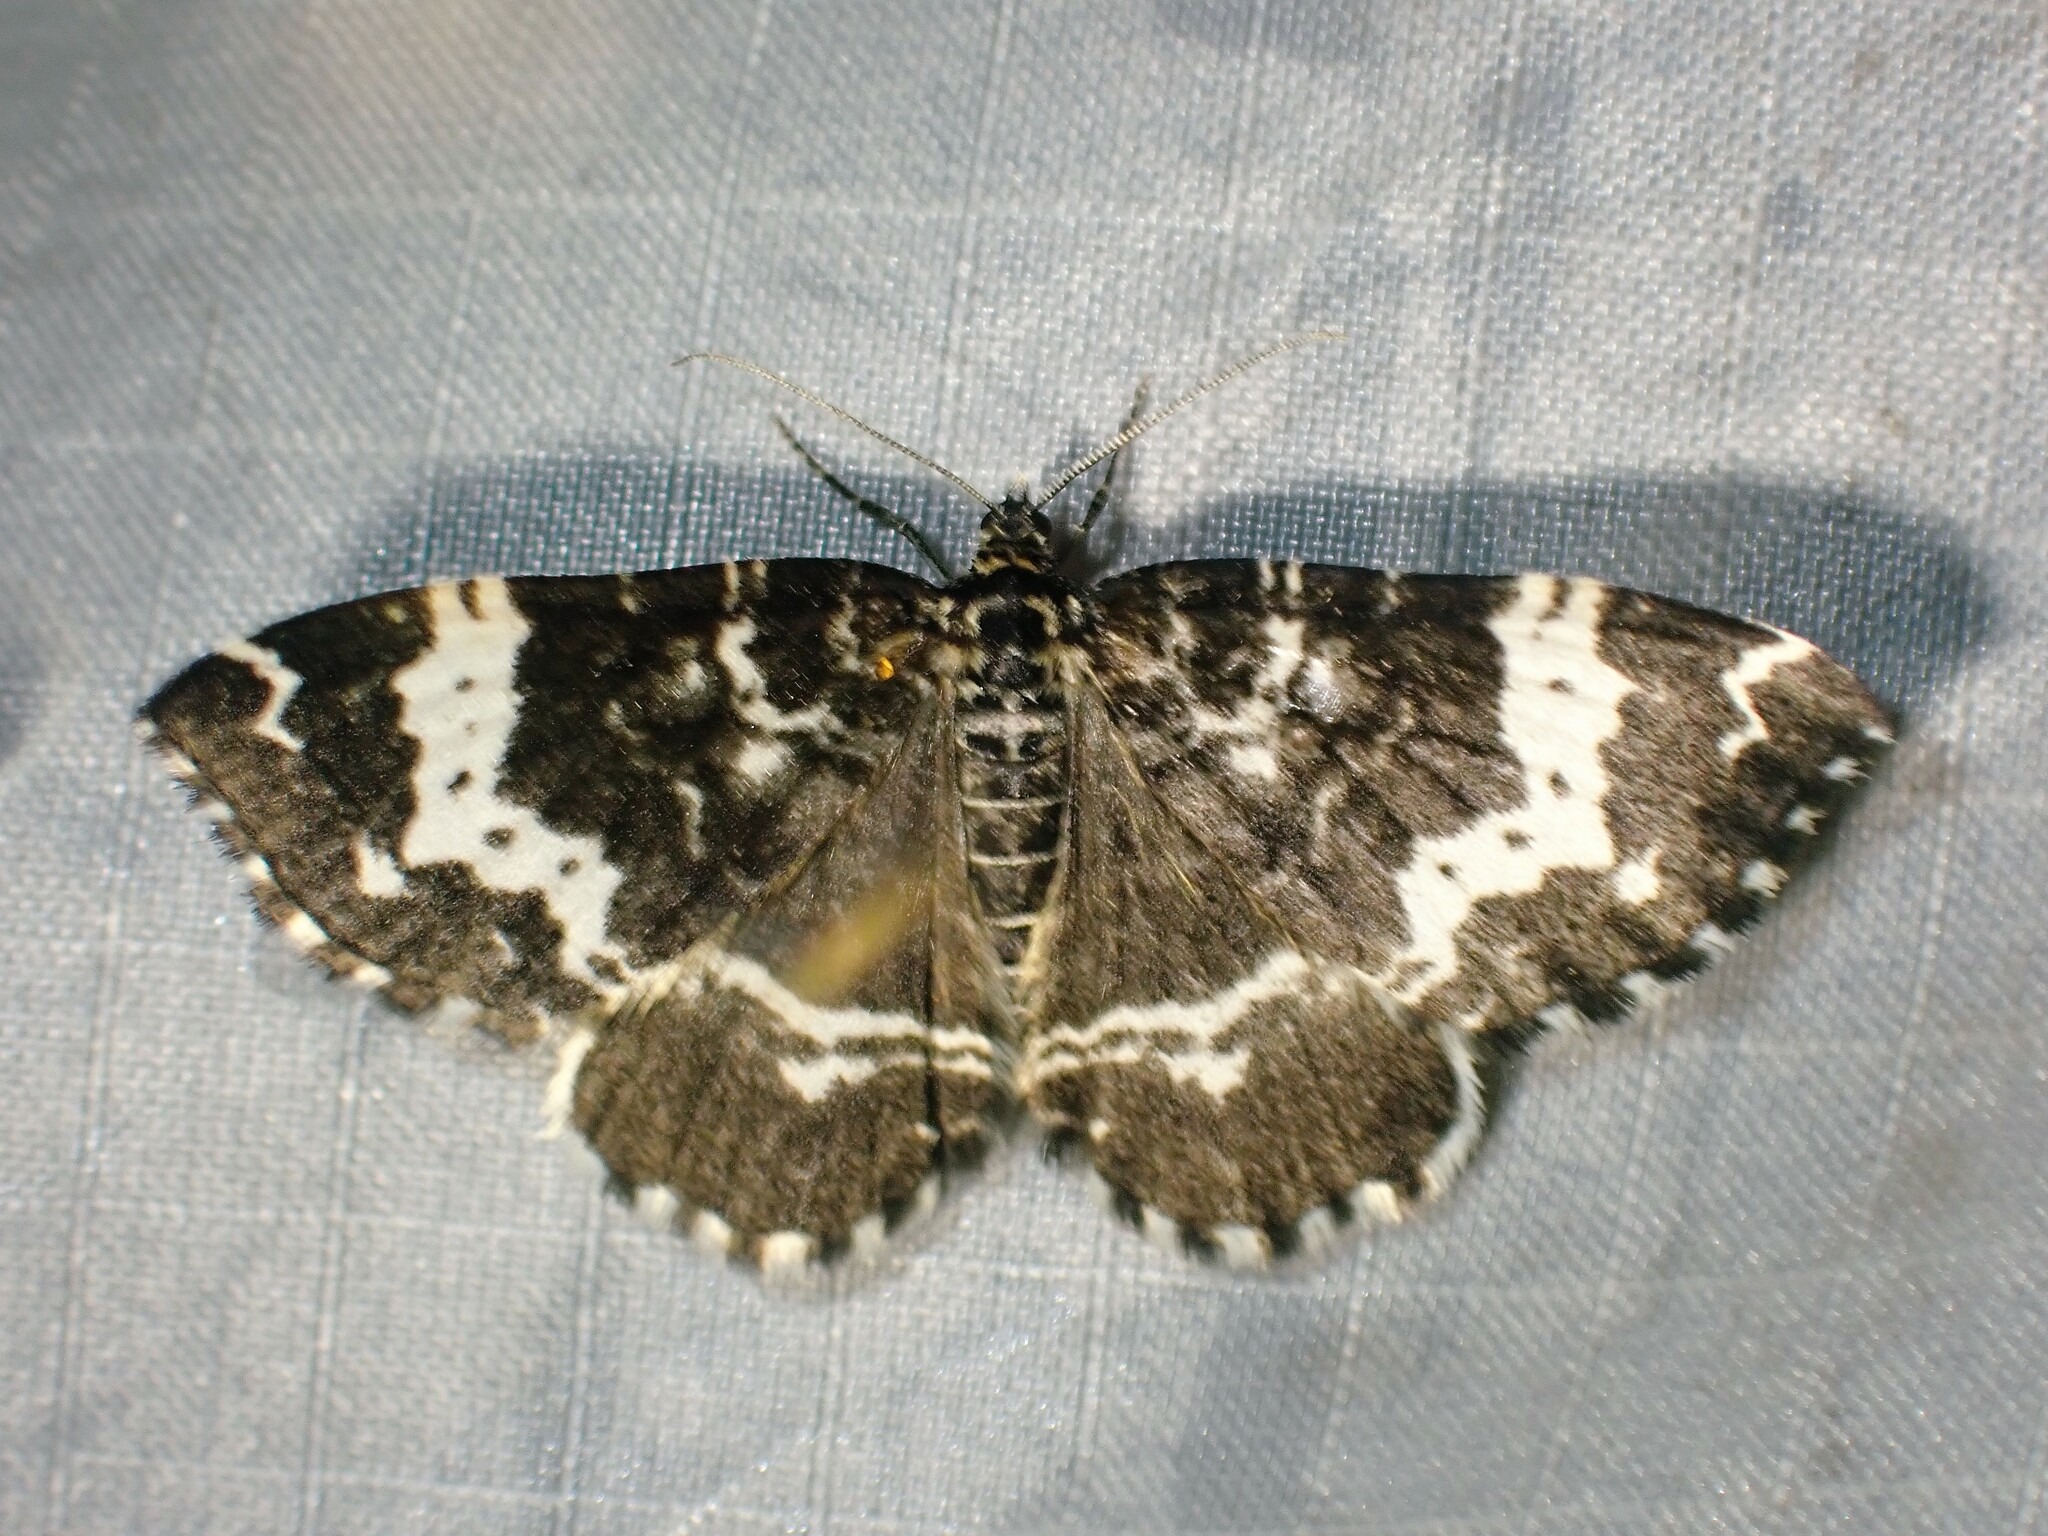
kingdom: Animalia
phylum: Arthropoda
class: Insecta
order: Lepidoptera
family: Geometridae
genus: Rheumaptera
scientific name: Rheumaptera
